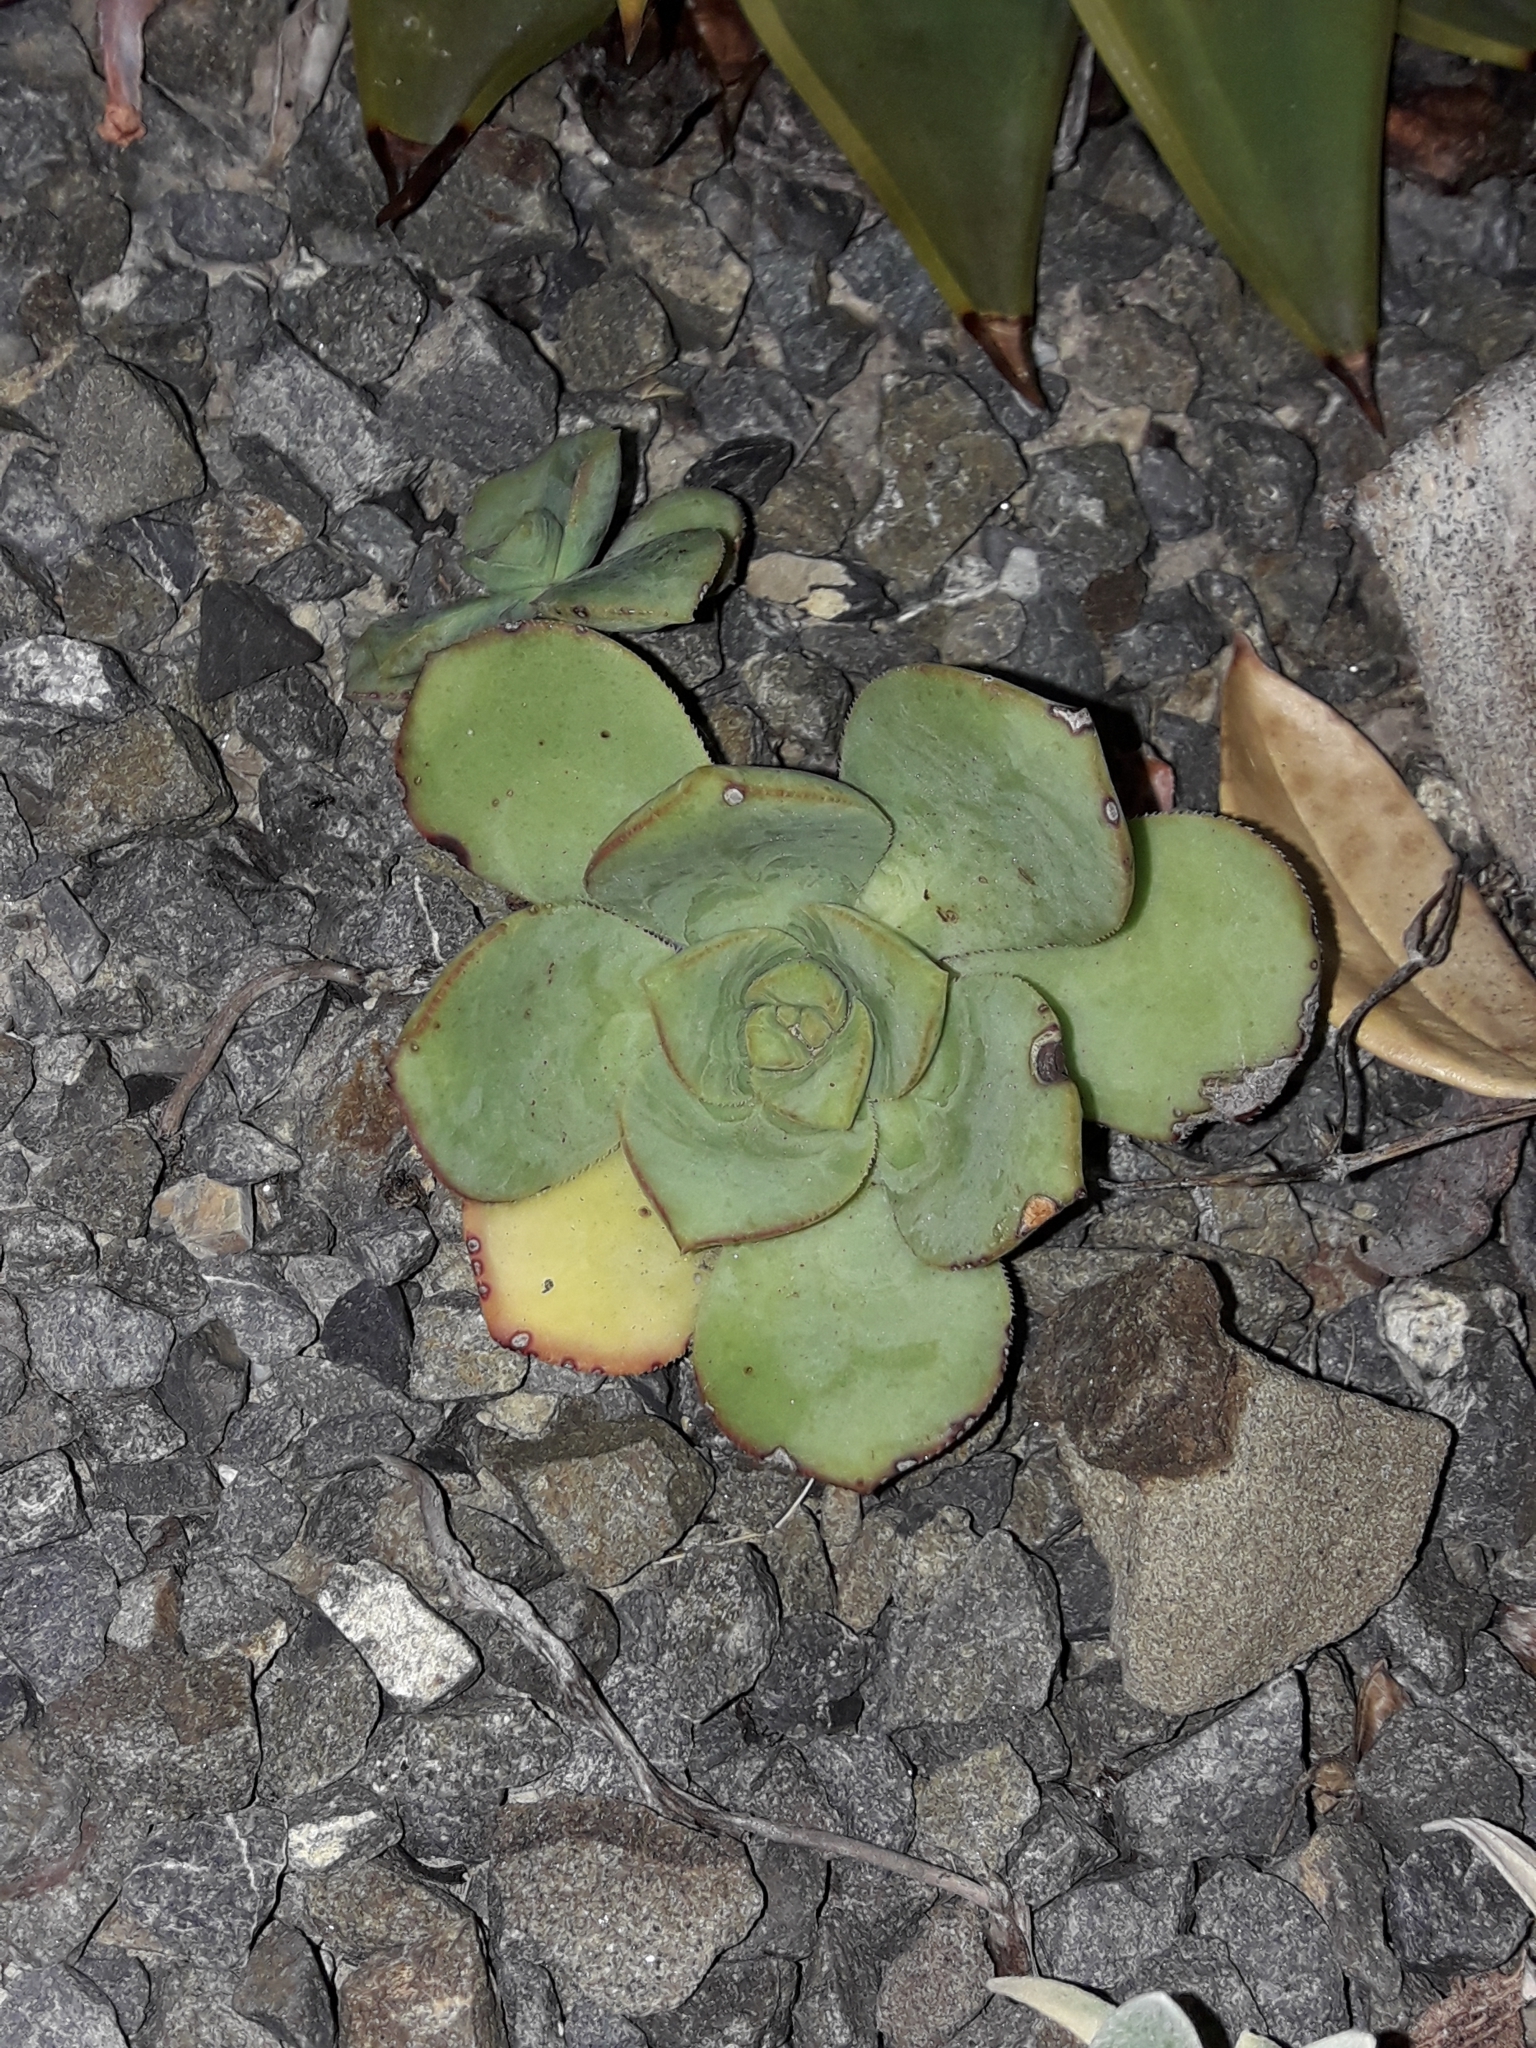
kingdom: Plantae
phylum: Tracheophyta
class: Magnoliopsida
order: Saxifragales
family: Crassulaceae
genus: Aeonium
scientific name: Aeonium haworthii
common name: Haworth's aeonium
